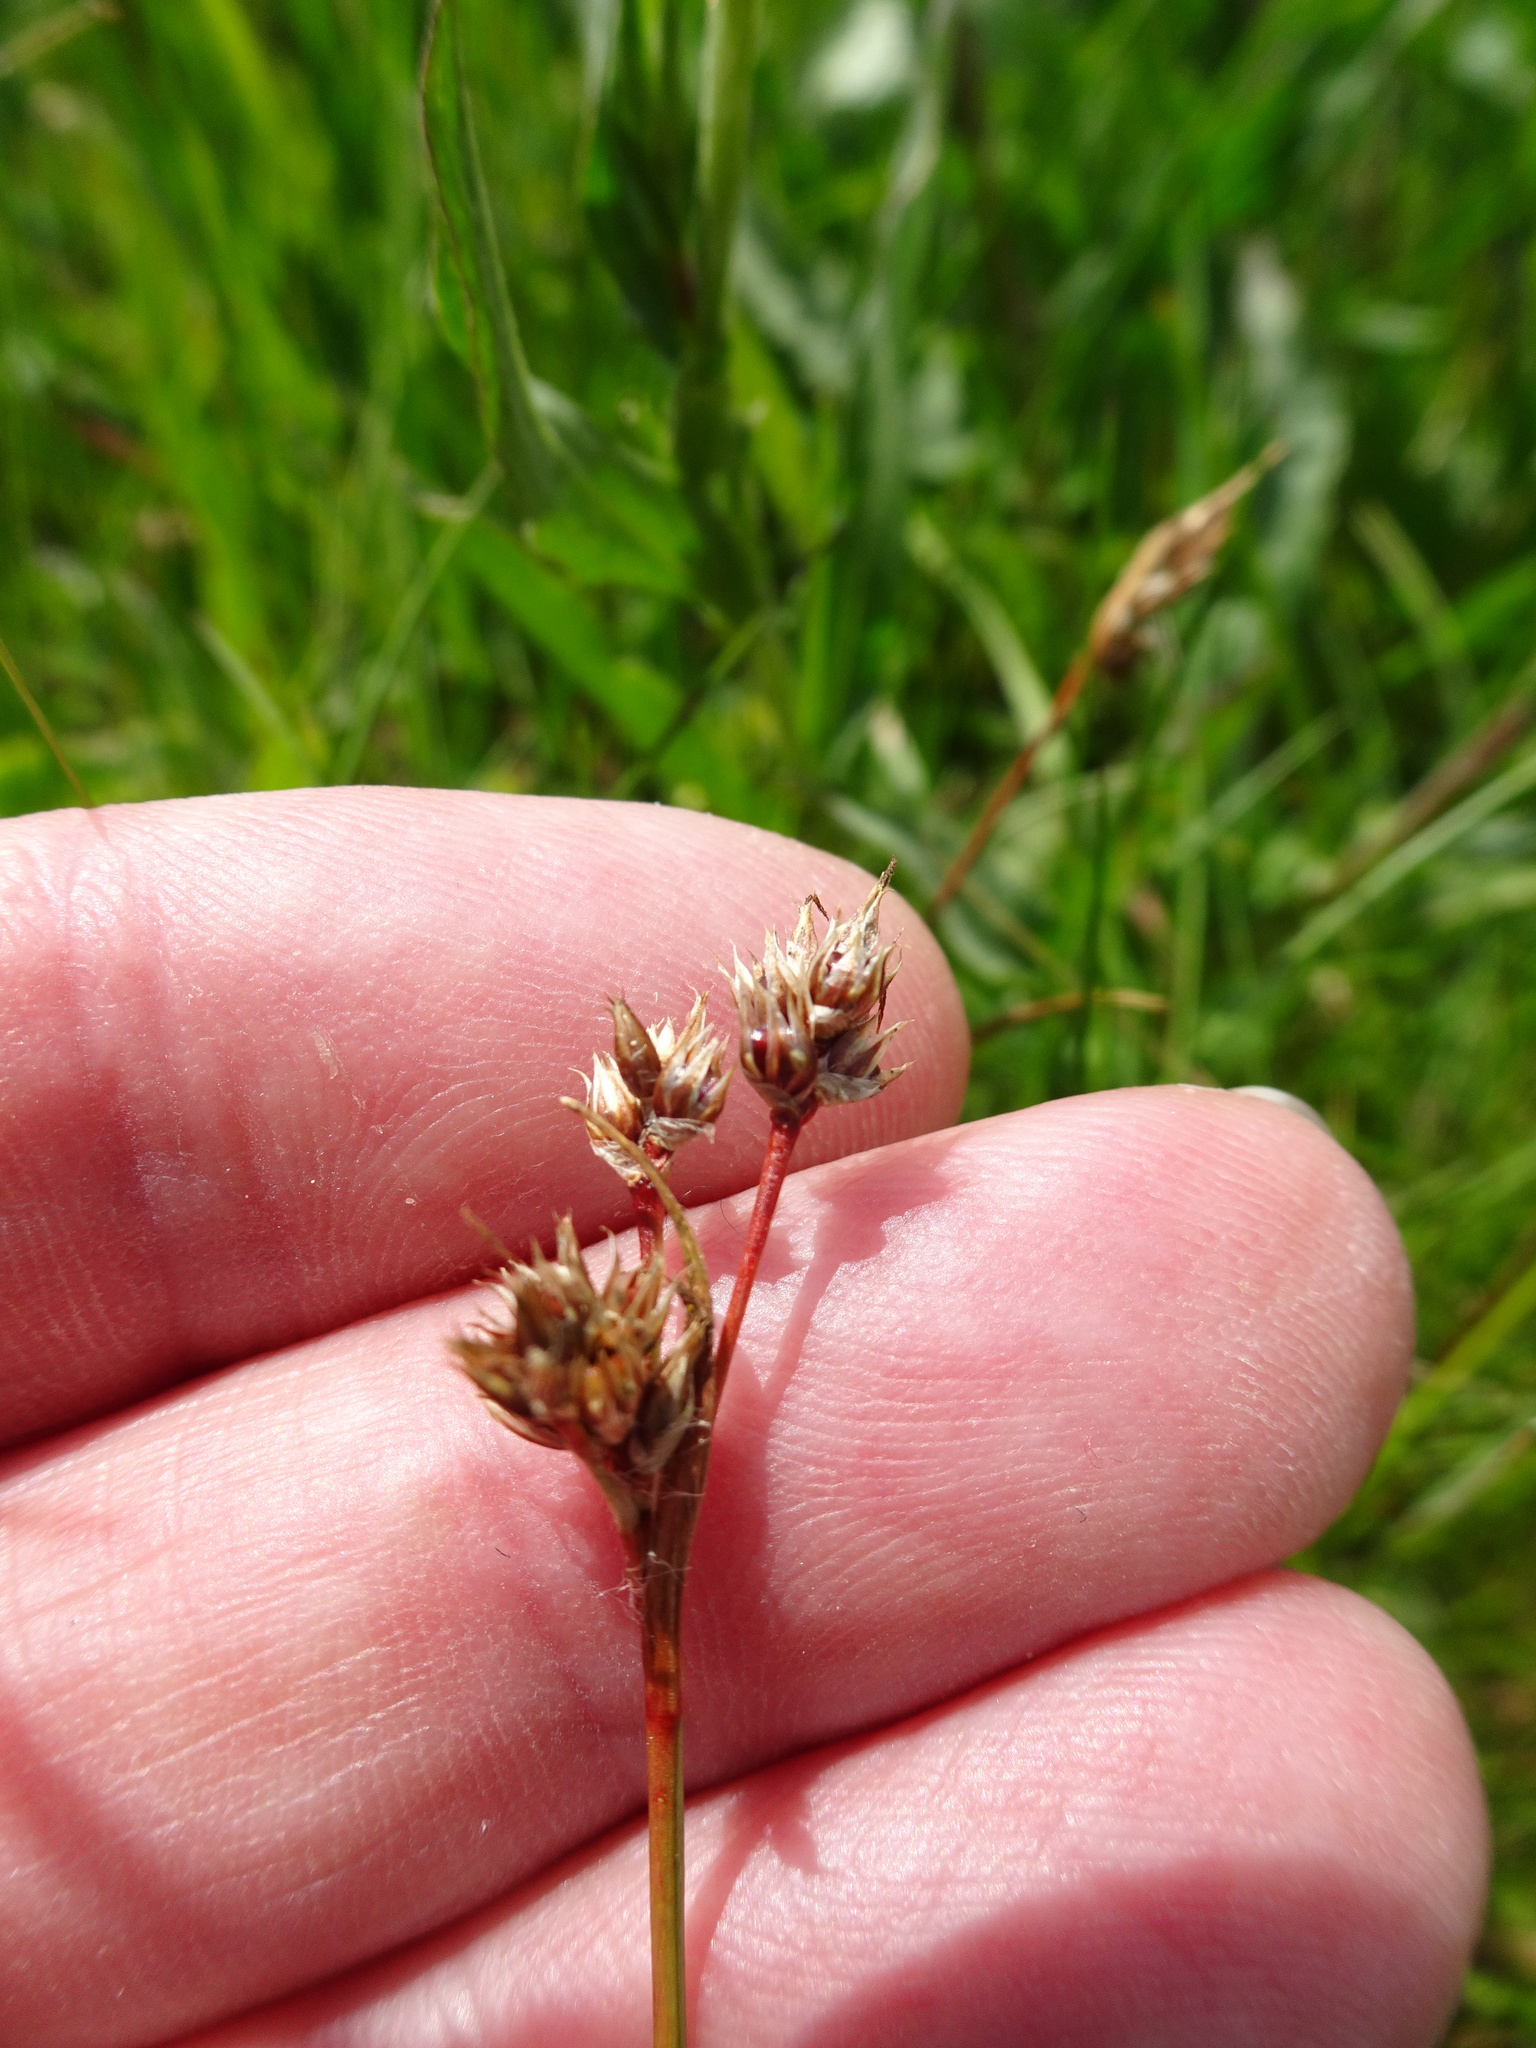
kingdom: Plantae
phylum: Tracheophyta
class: Liliopsida
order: Poales
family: Juncaceae
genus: Luzula
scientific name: Luzula campestris
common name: Field wood-rush
